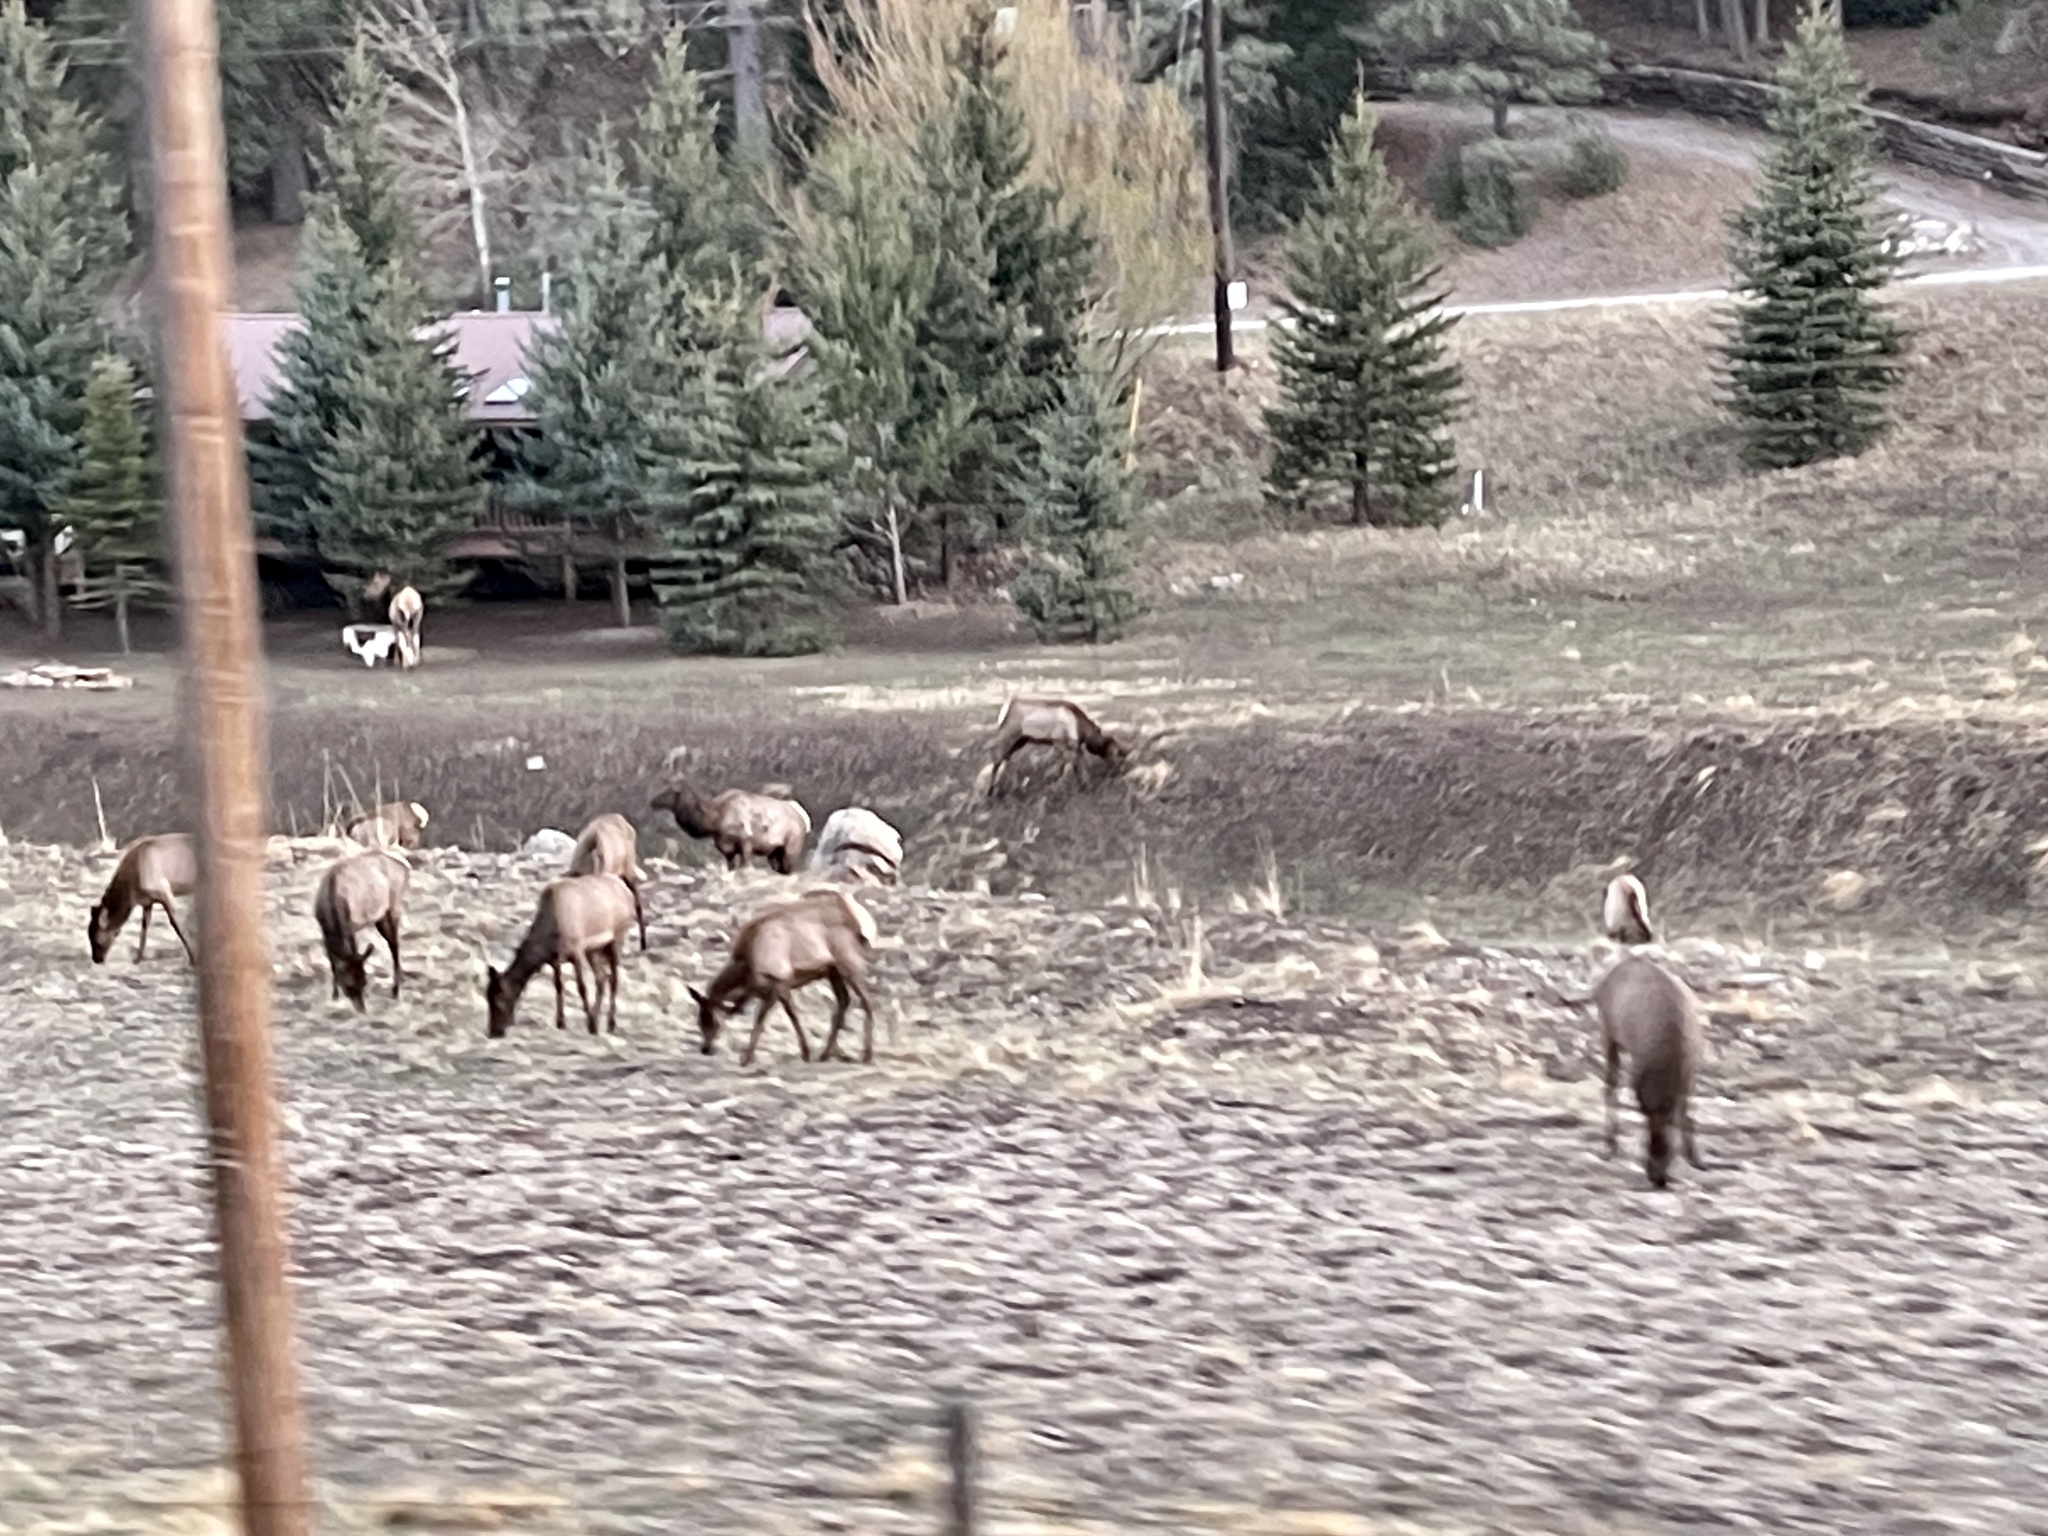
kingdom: Animalia
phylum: Chordata
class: Mammalia
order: Artiodactyla
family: Cervidae
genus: Cervus
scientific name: Cervus elaphus
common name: Red deer
